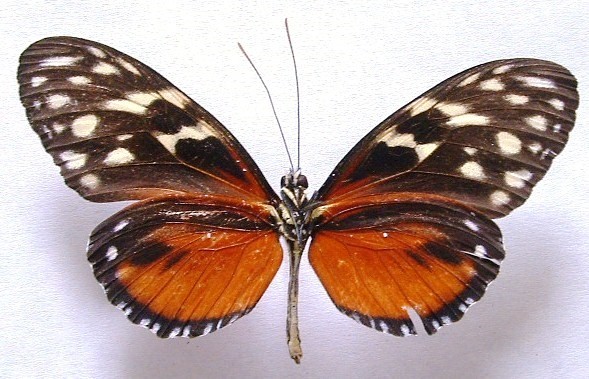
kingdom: Animalia
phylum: Arthropoda
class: Insecta
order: Lepidoptera
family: Nymphalidae
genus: Heliconius
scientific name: Heliconius hecale
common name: Tiger longwing
